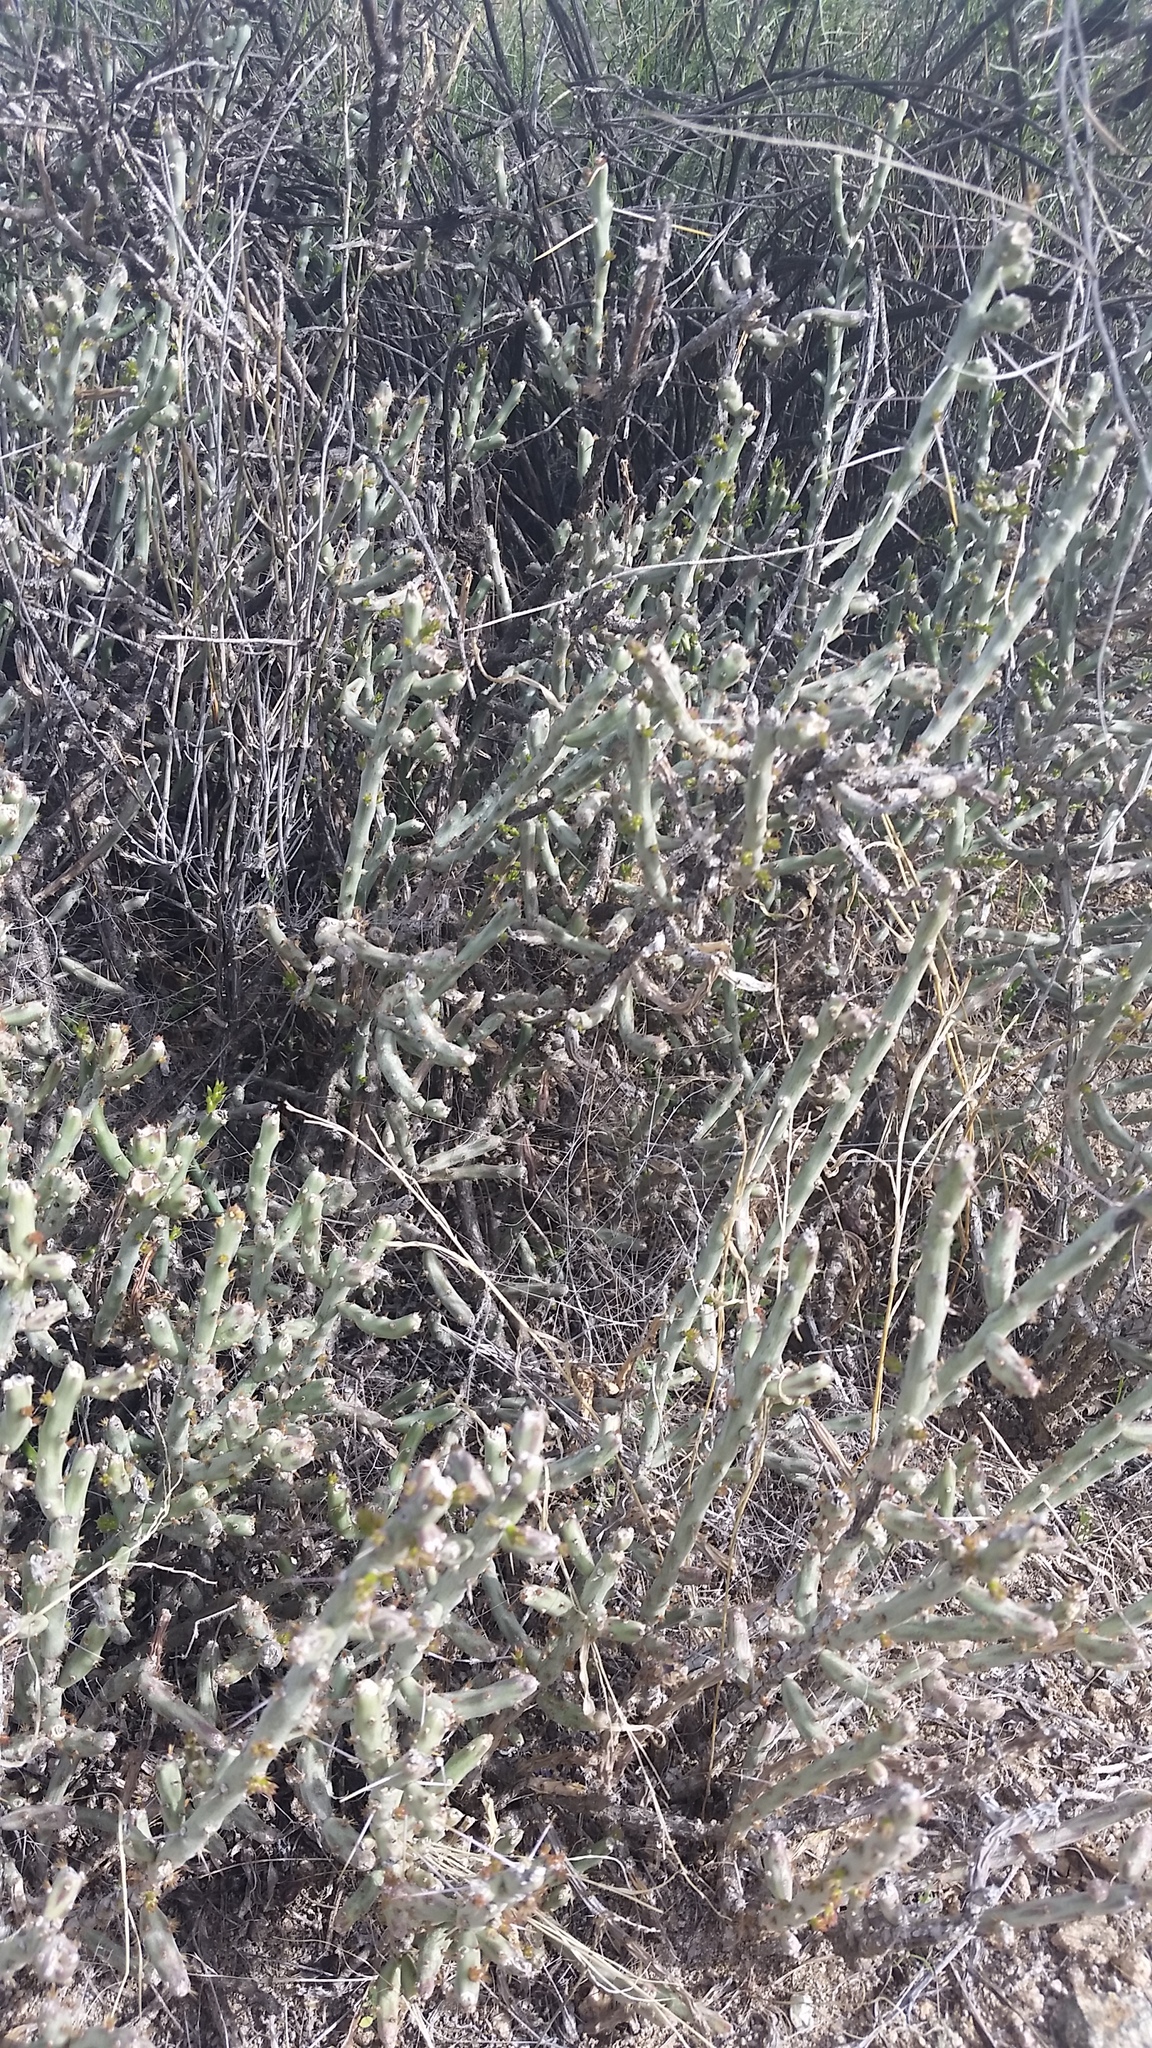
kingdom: Plantae
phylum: Tracheophyta
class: Magnoliopsida
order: Caryophyllales
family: Cactaceae
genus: Cylindropuntia
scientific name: Cylindropuntia leptocaulis
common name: Christmas cactus
